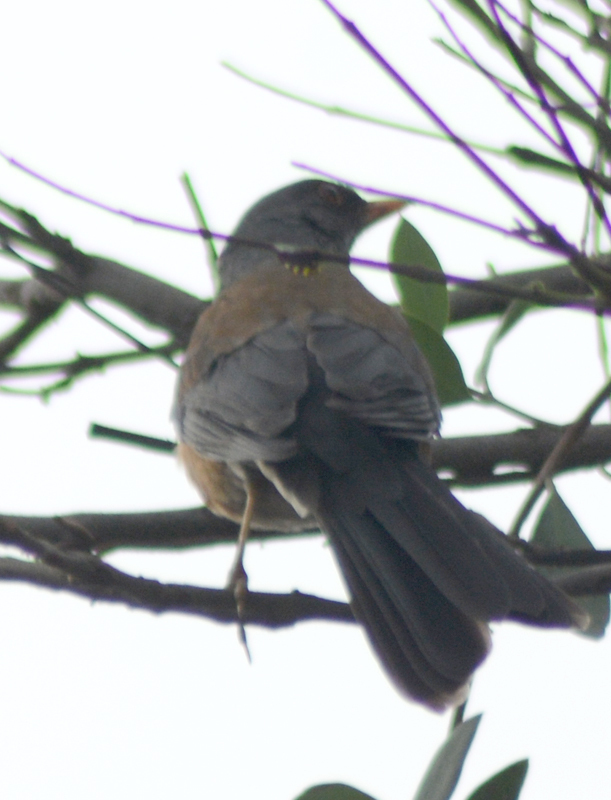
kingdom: Animalia
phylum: Chordata
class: Aves
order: Passeriformes
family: Turdidae
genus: Turdus
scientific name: Turdus rufopalliatus
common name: Rufous-backed robin
